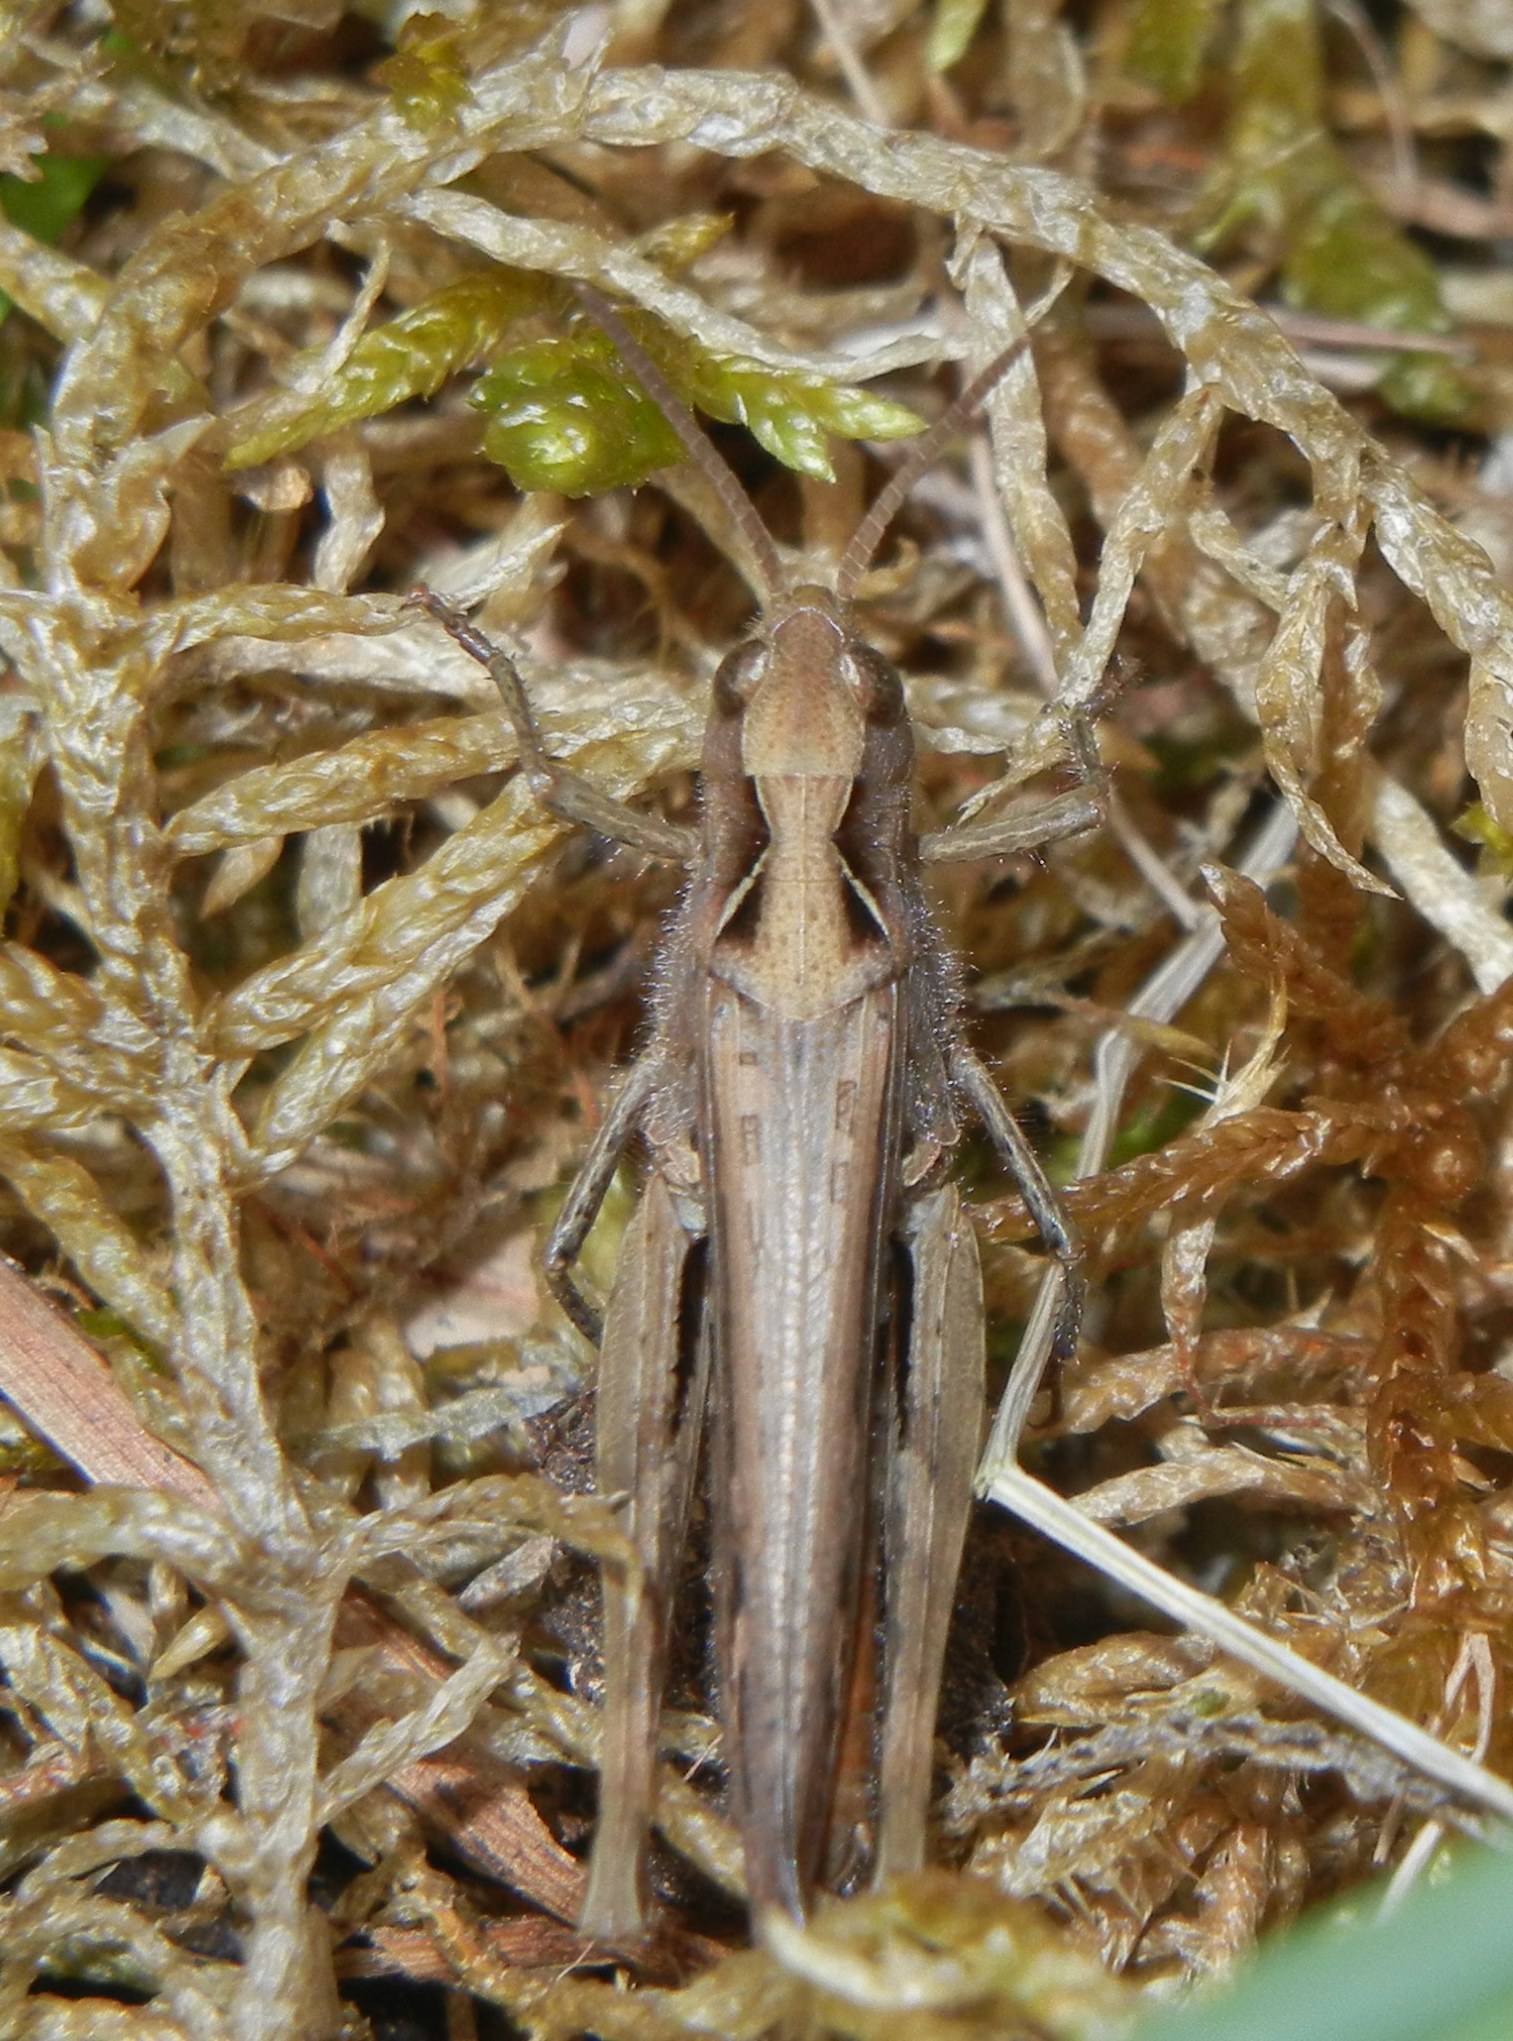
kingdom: Animalia
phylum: Arthropoda
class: Insecta
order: Orthoptera
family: Acrididae
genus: Chorthippus
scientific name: Chorthippus brunneus
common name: Field grasshopper
